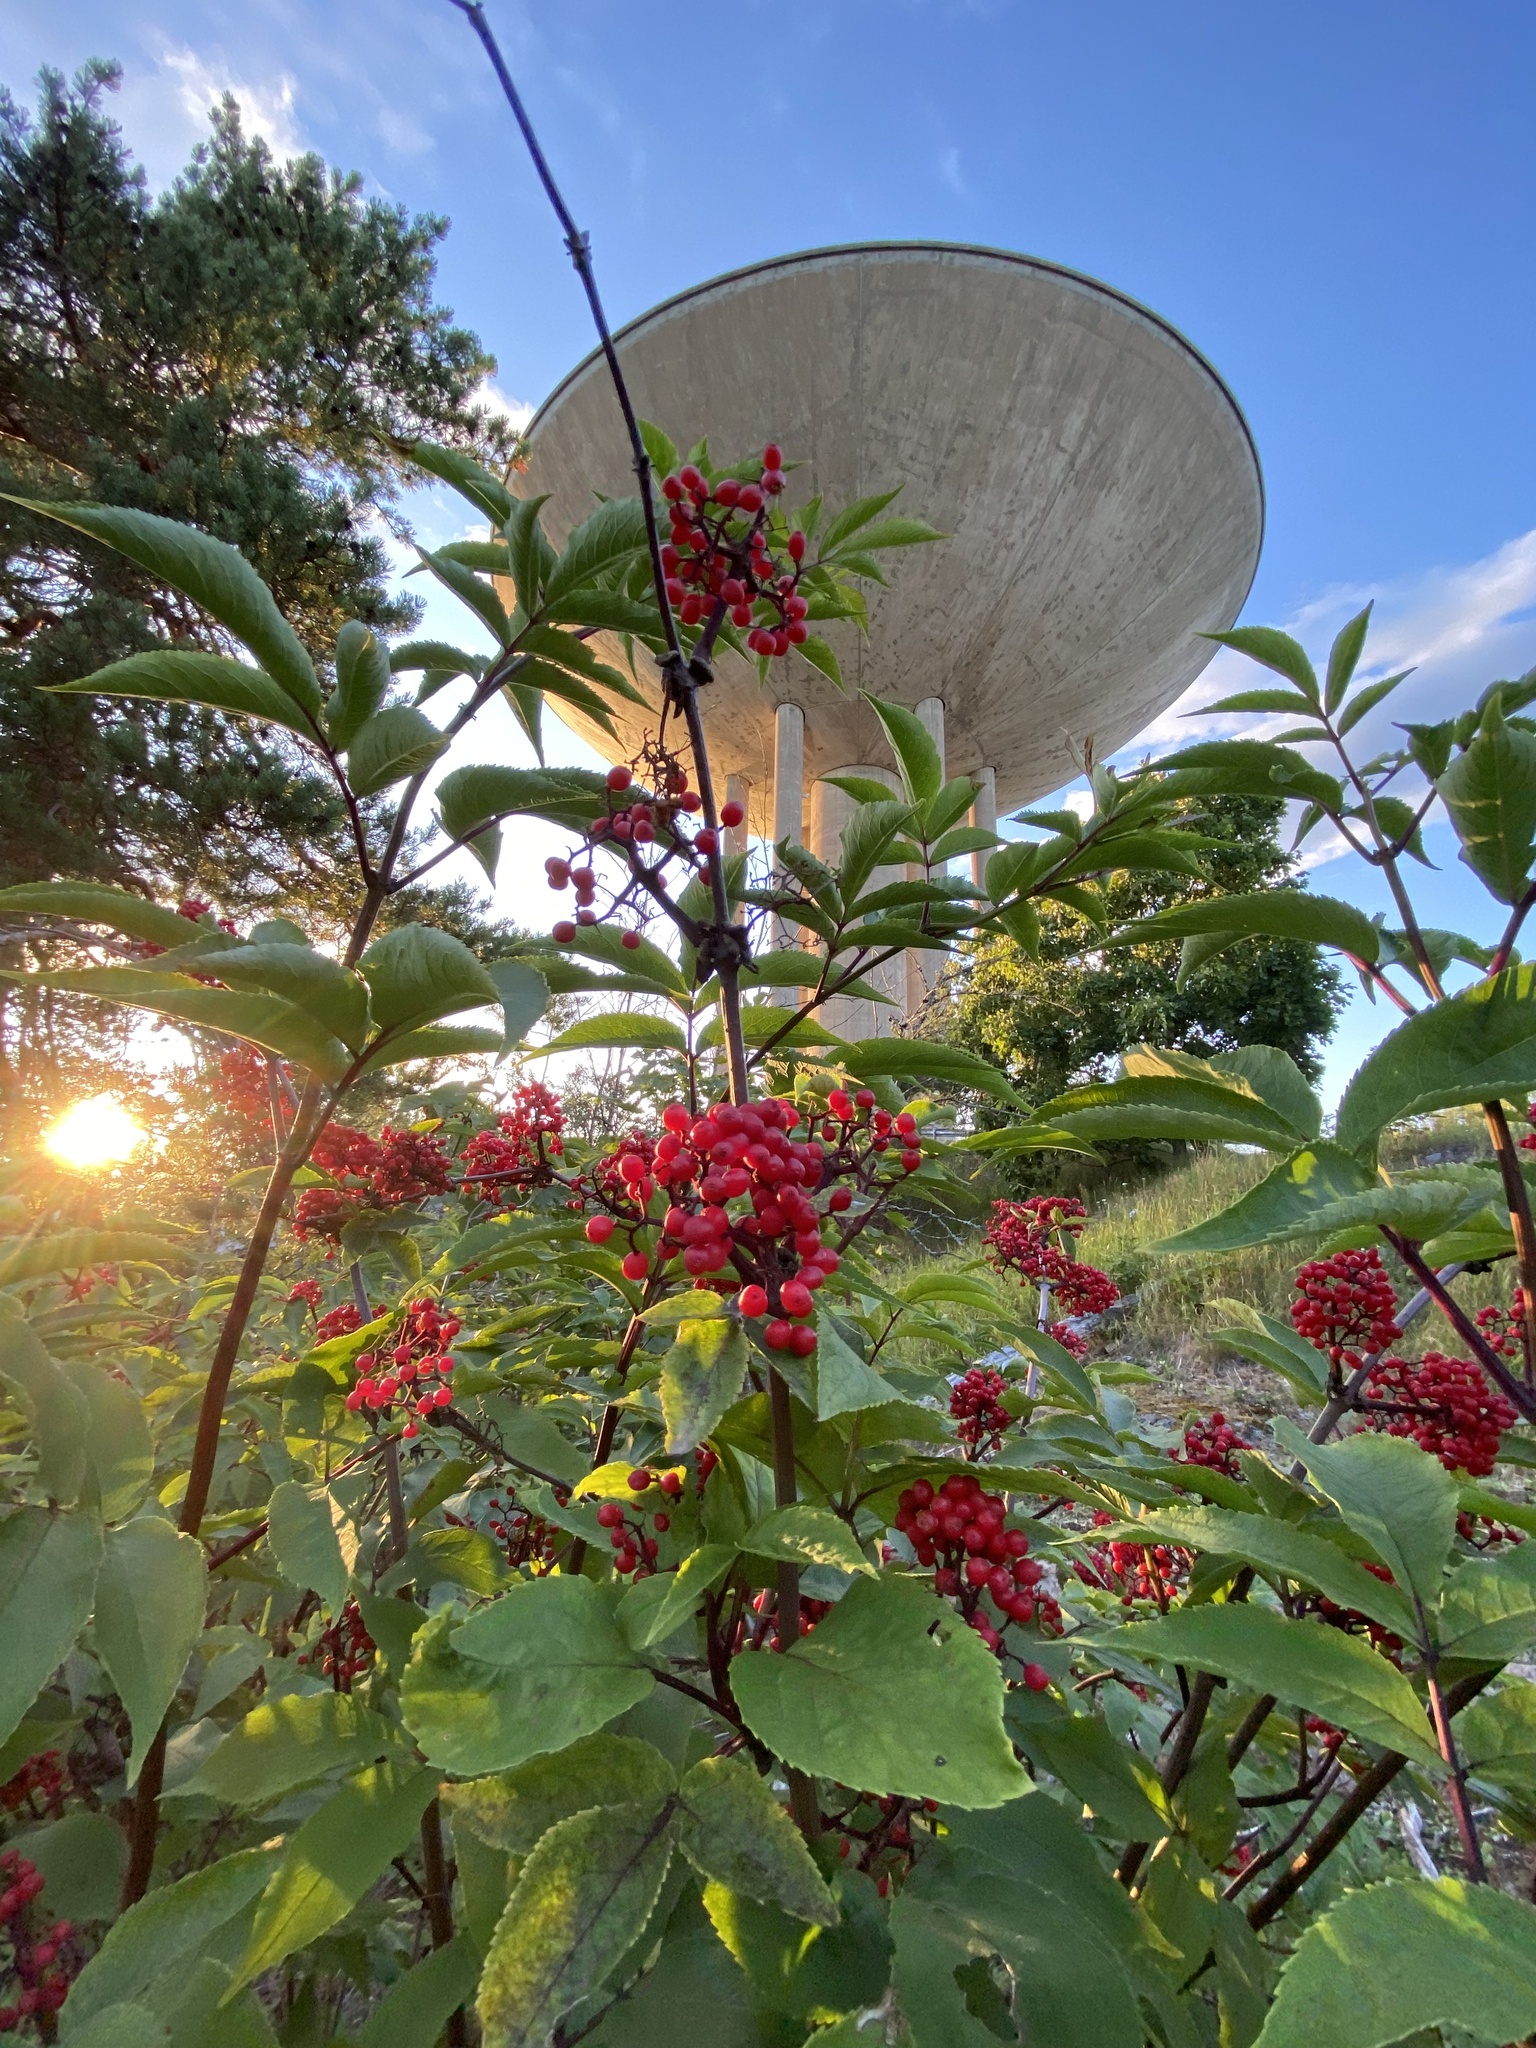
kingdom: Plantae
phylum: Tracheophyta
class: Magnoliopsida
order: Dipsacales
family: Viburnaceae
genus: Sambucus
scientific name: Sambucus racemosa
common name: Red-berried elder
